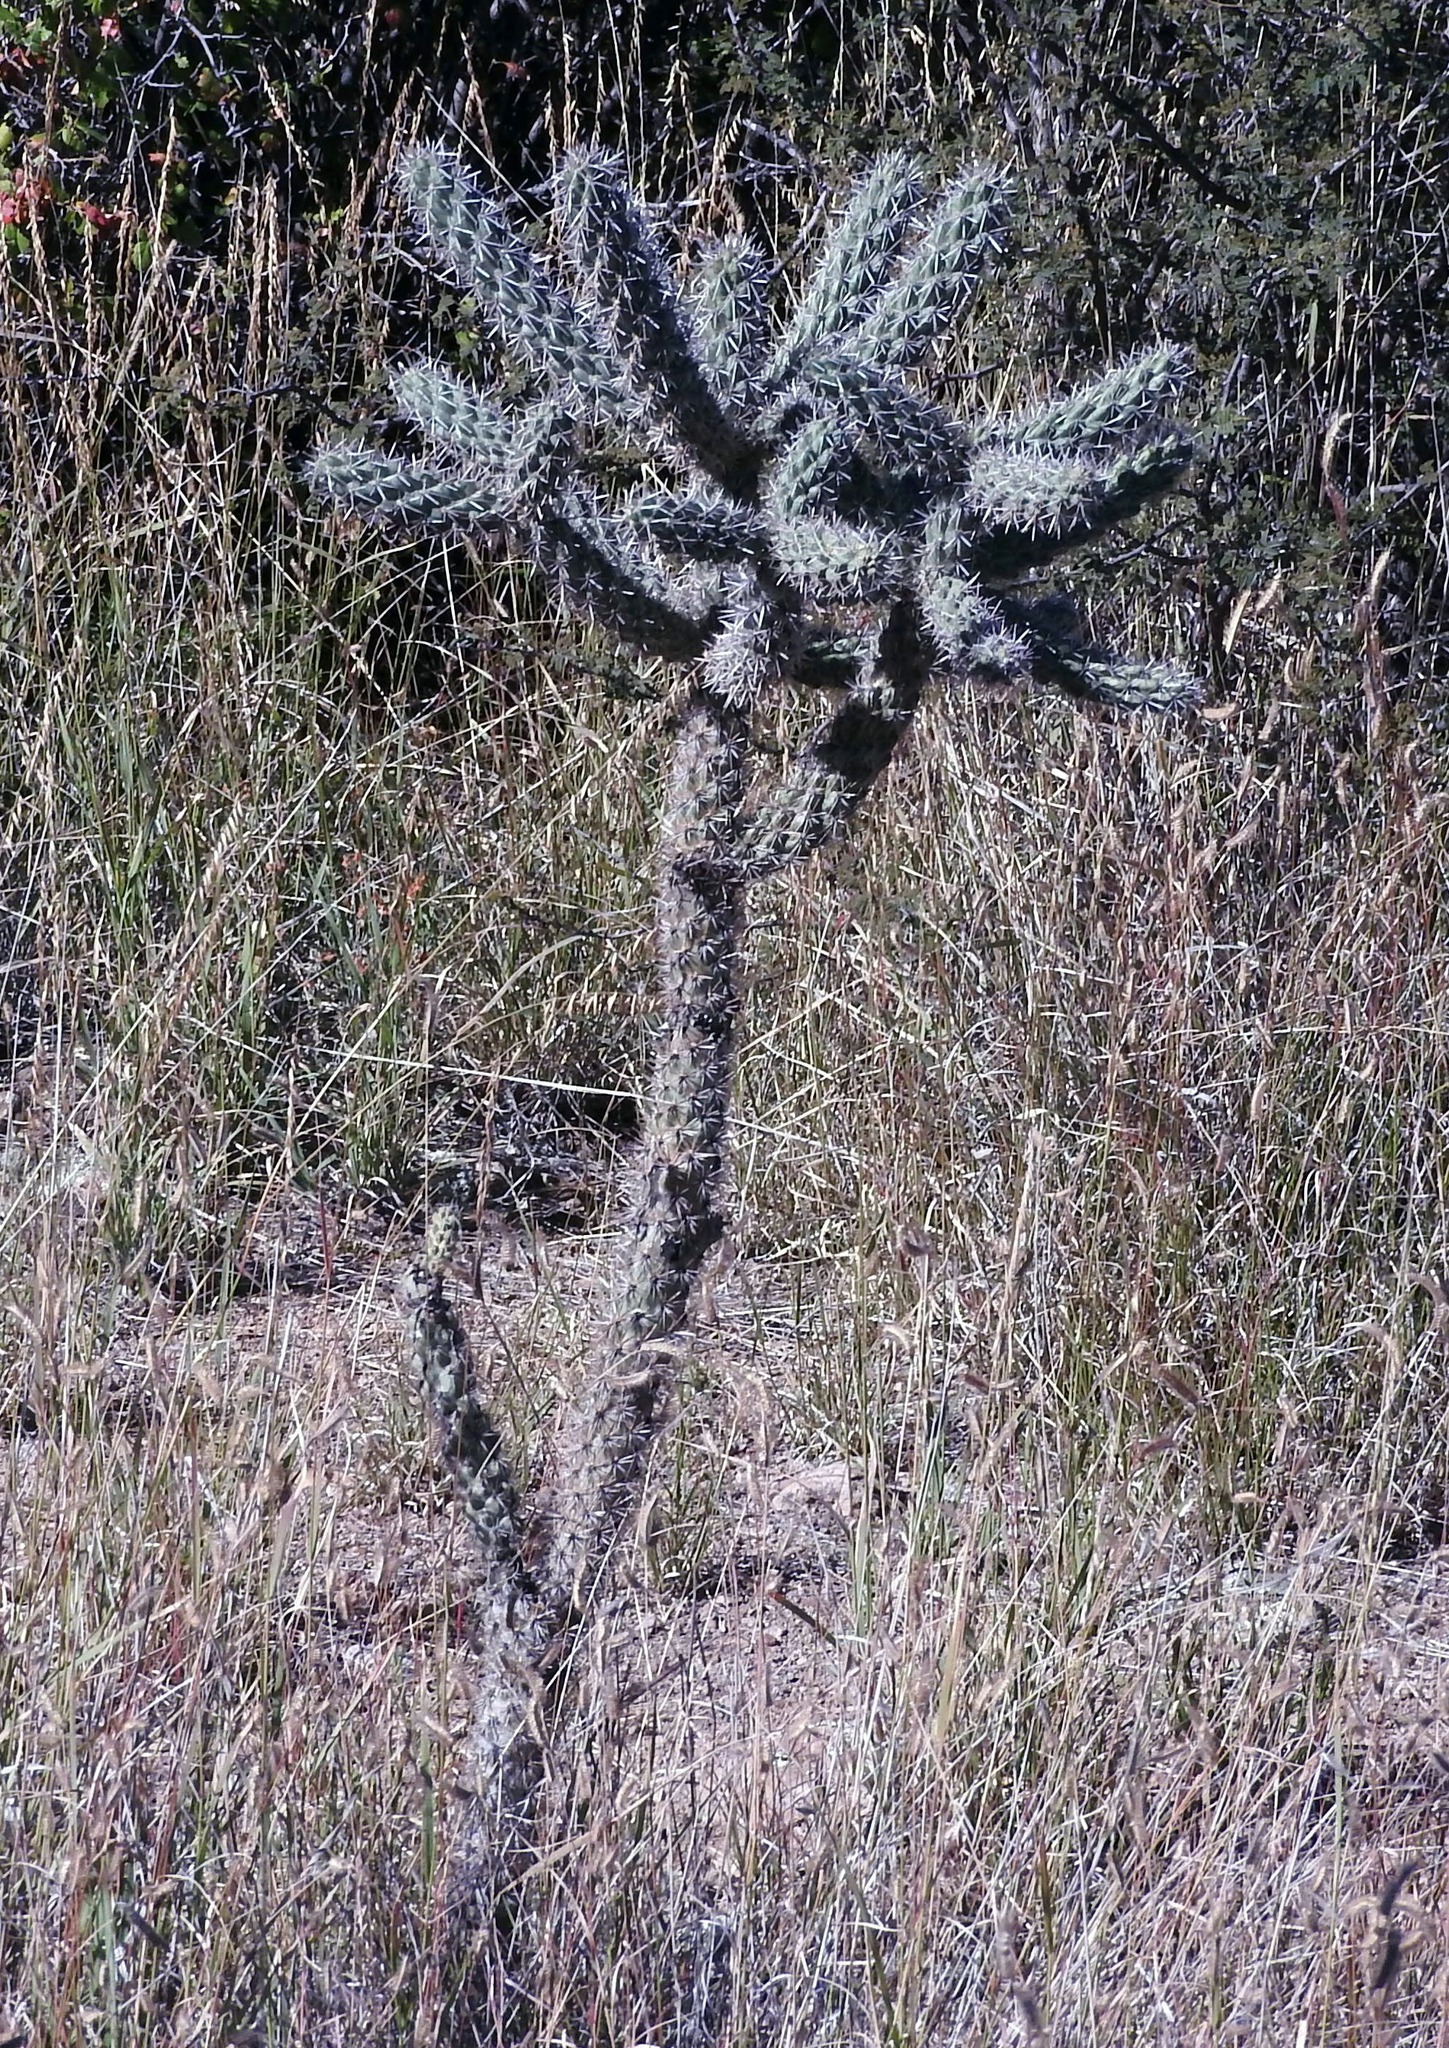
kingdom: Plantae
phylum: Tracheophyta
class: Magnoliopsida
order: Caryophyllales
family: Cactaceae
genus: Cylindropuntia
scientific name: Cylindropuntia imbricata
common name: Candelabrum cactus
